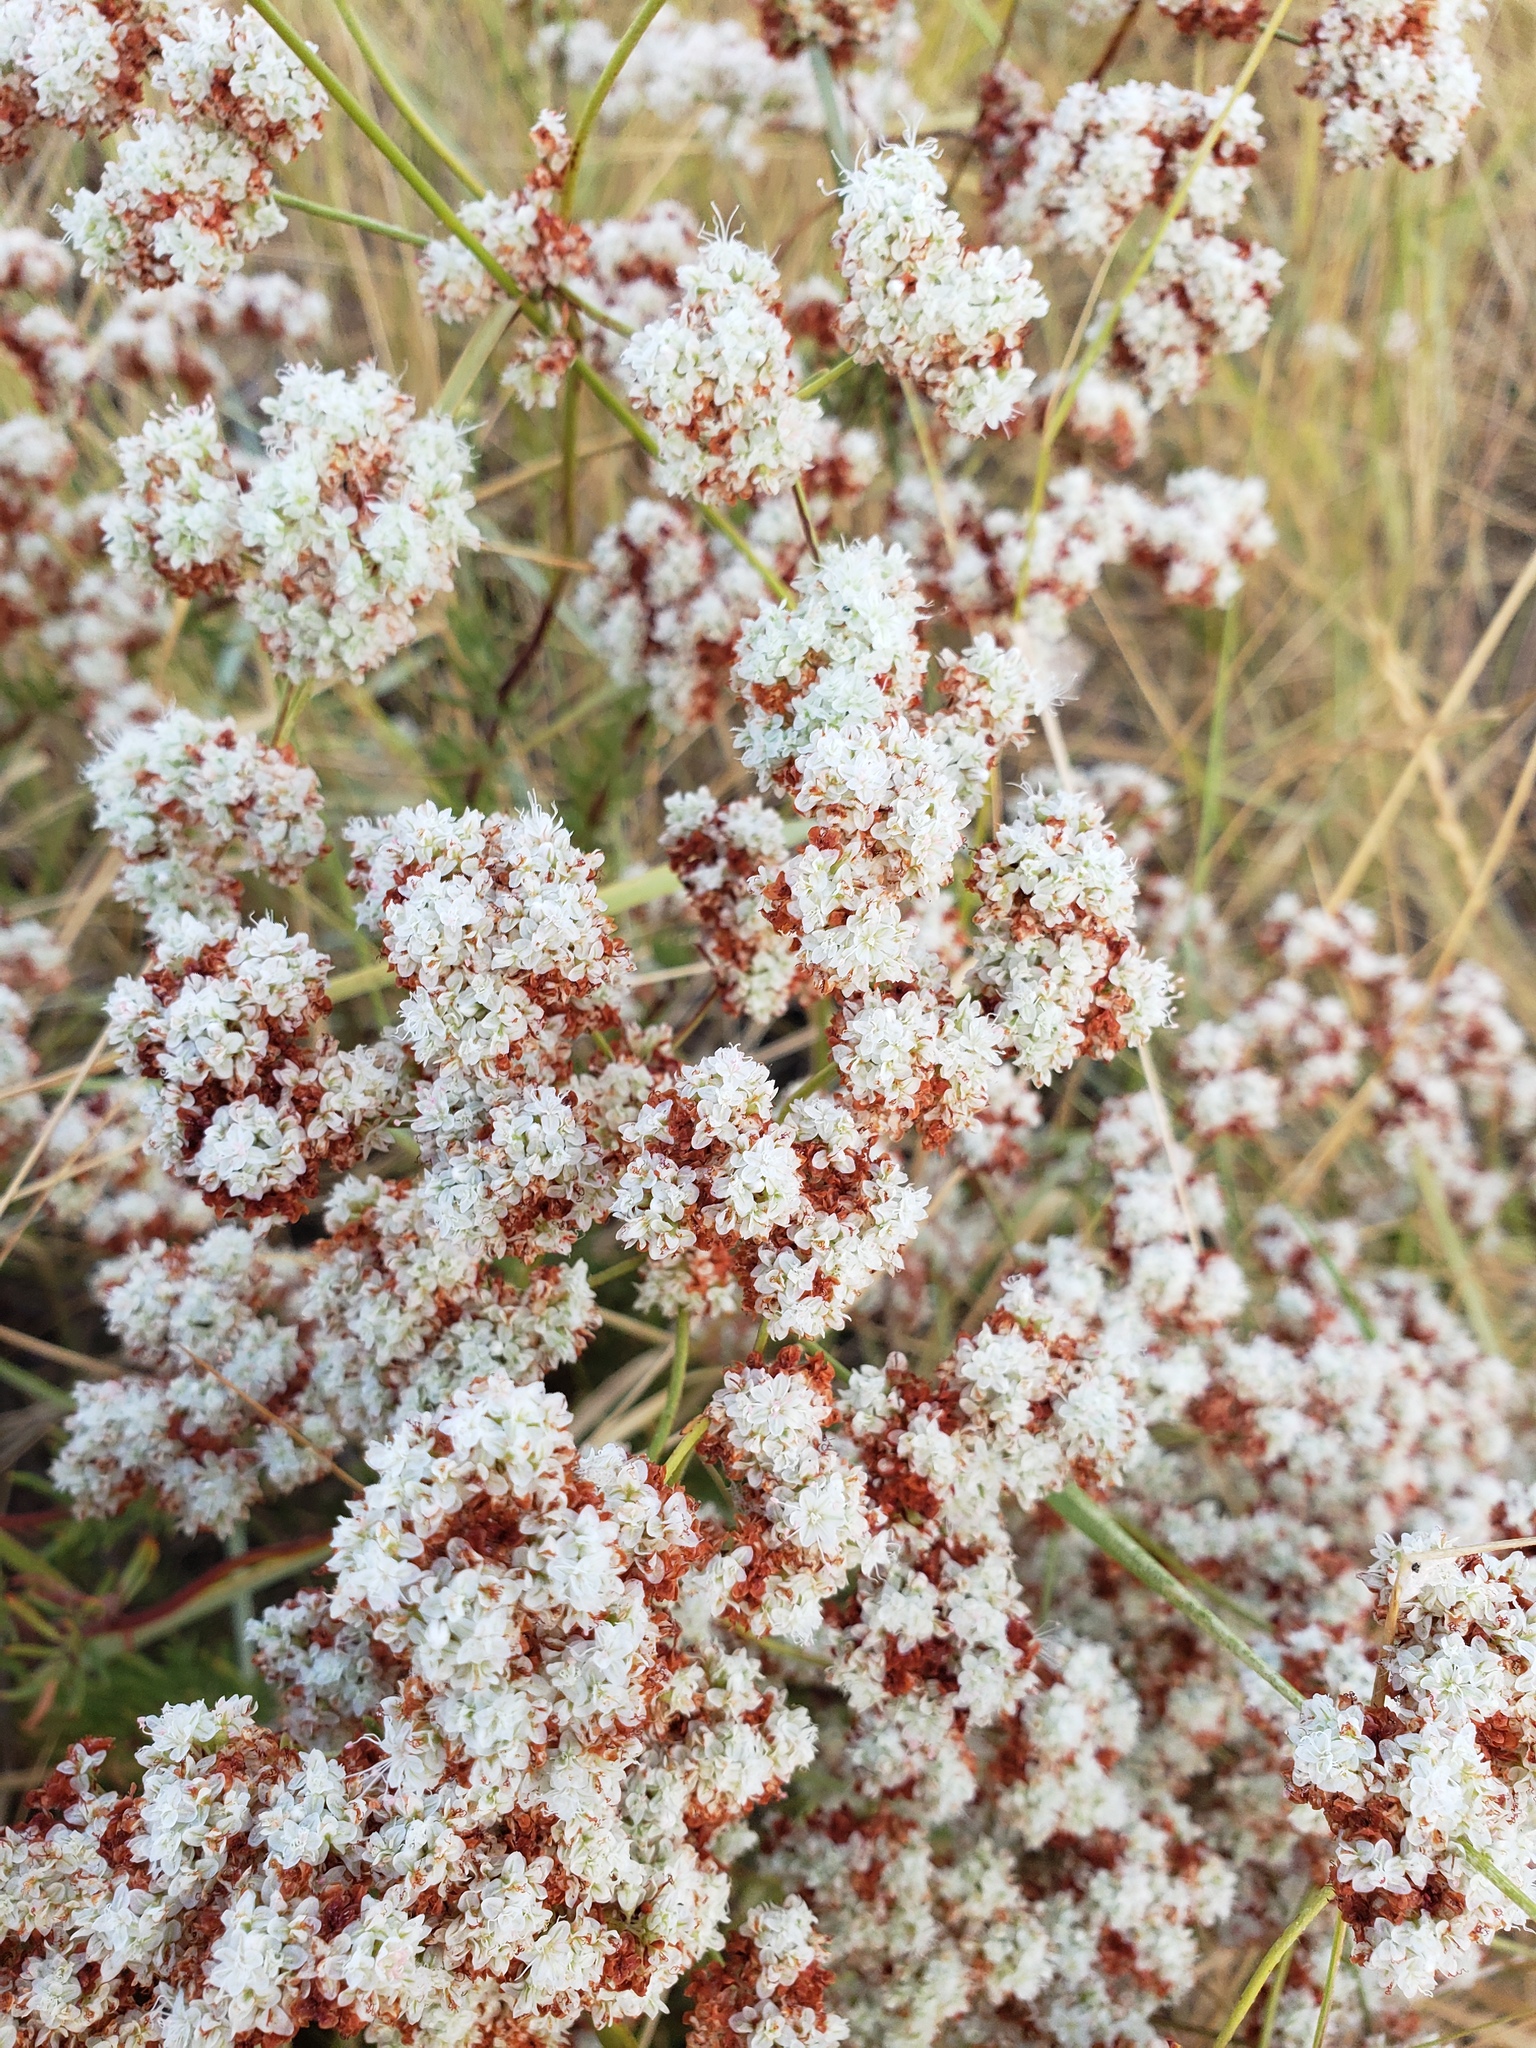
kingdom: Plantae
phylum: Tracheophyta
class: Magnoliopsida
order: Caryophyllales
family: Polygonaceae
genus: Eriogonum
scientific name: Eriogonum fasciculatum
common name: California wild buckwheat
